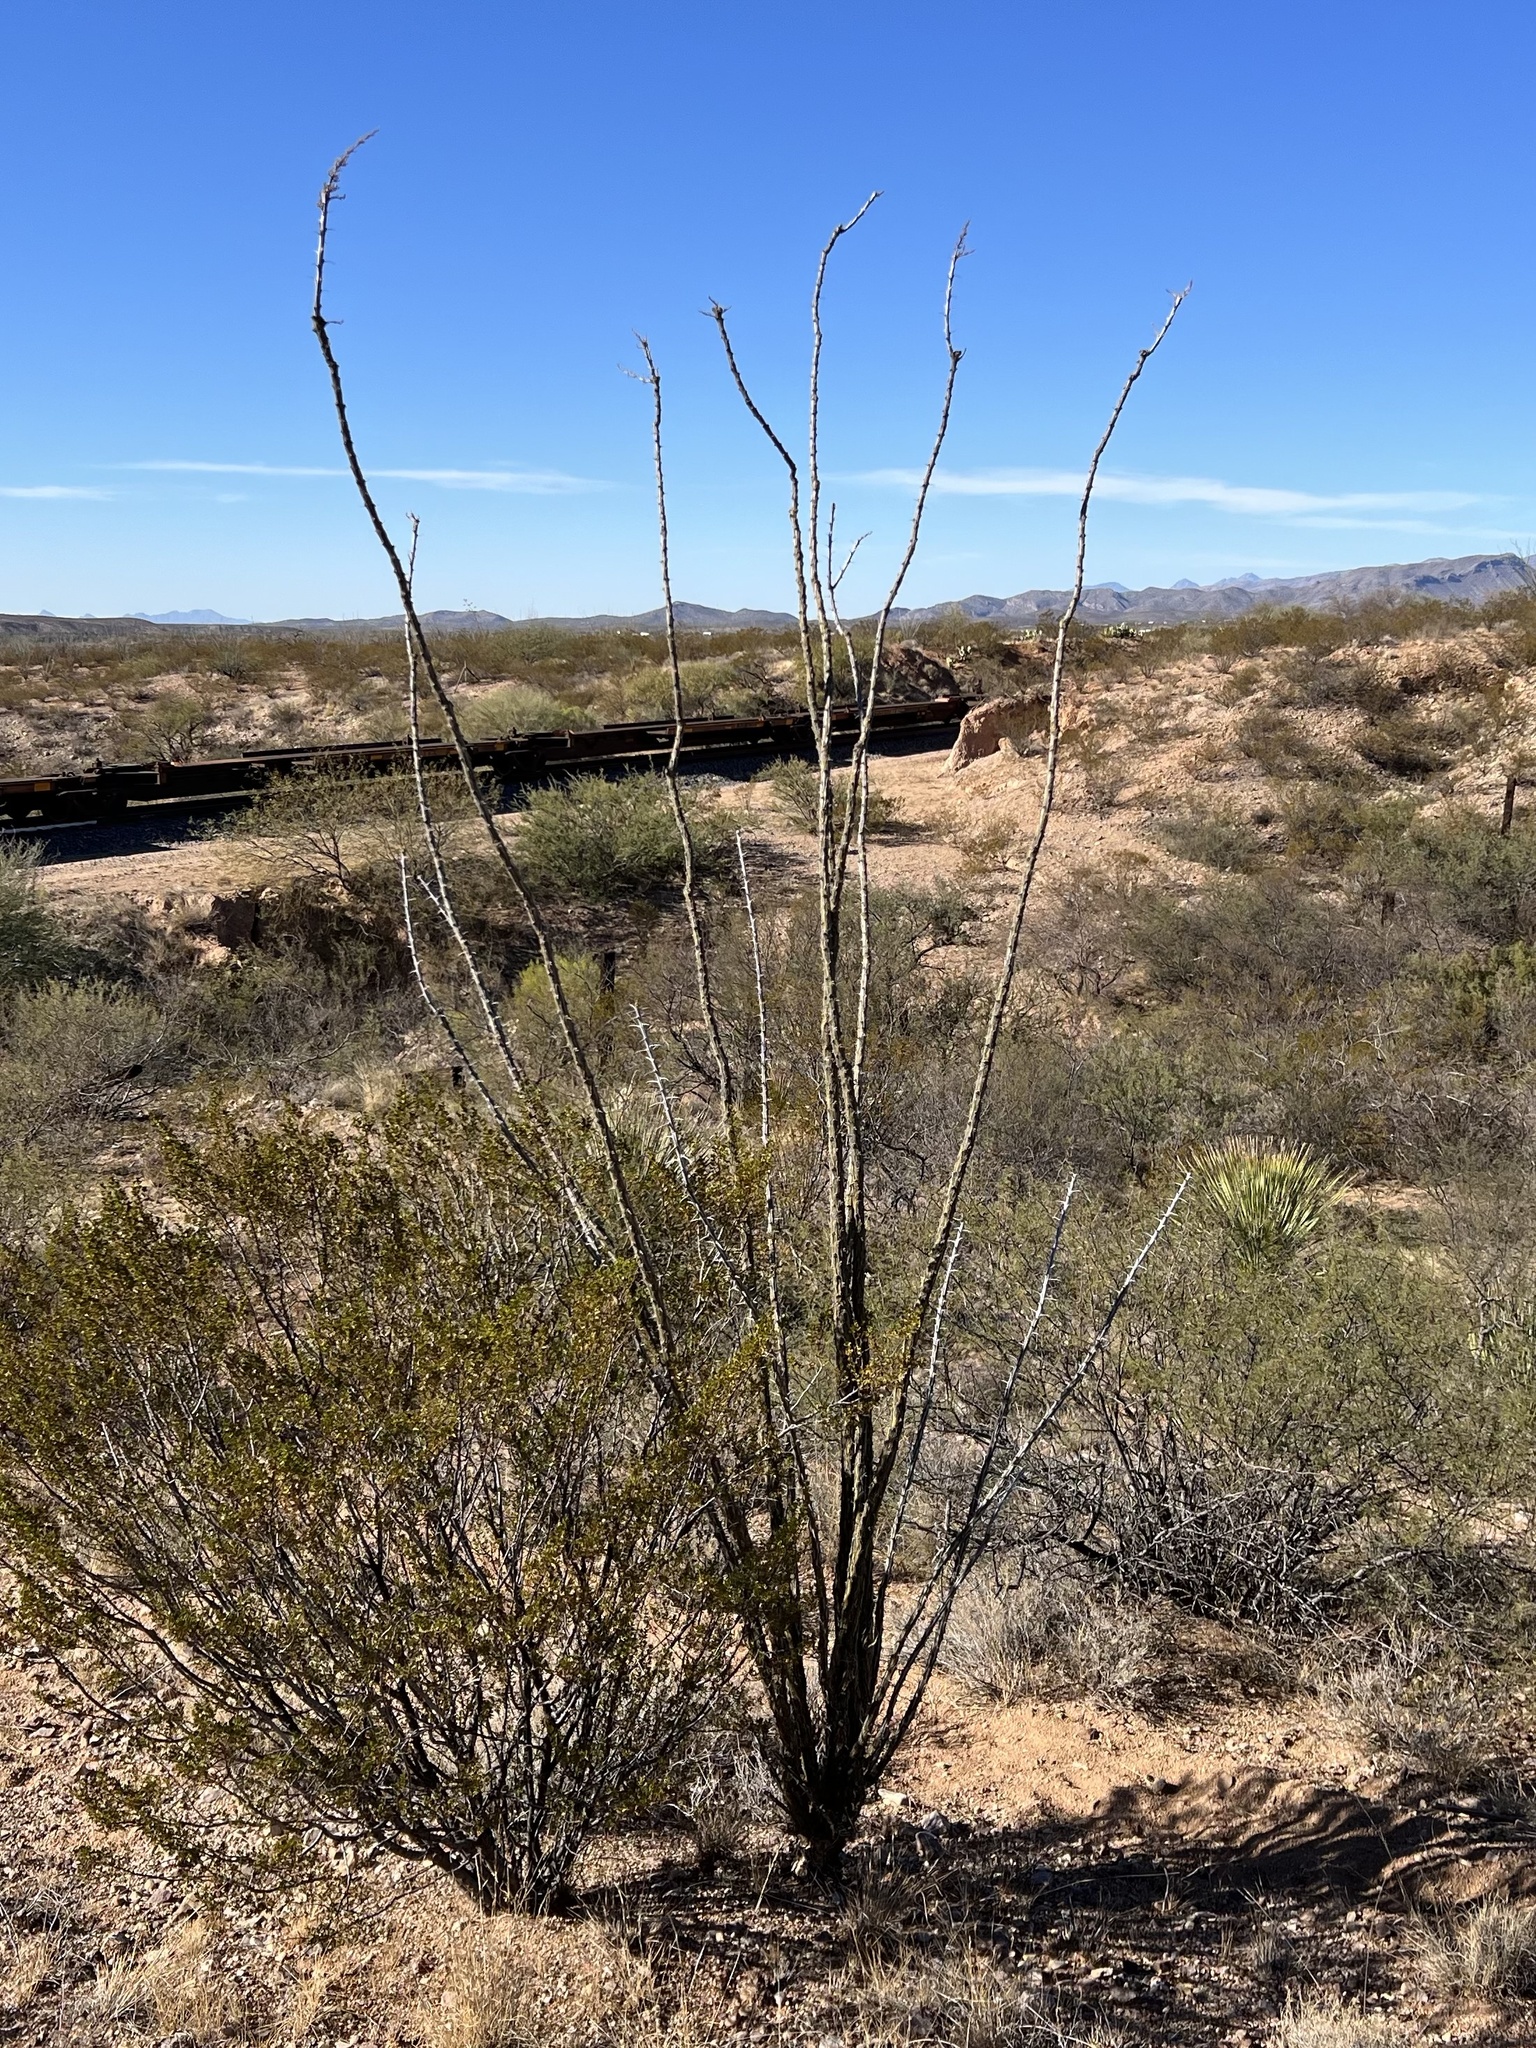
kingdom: Plantae
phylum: Tracheophyta
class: Magnoliopsida
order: Ericales
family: Fouquieriaceae
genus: Fouquieria
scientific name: Fouquieria splendens
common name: Vine-cactus
